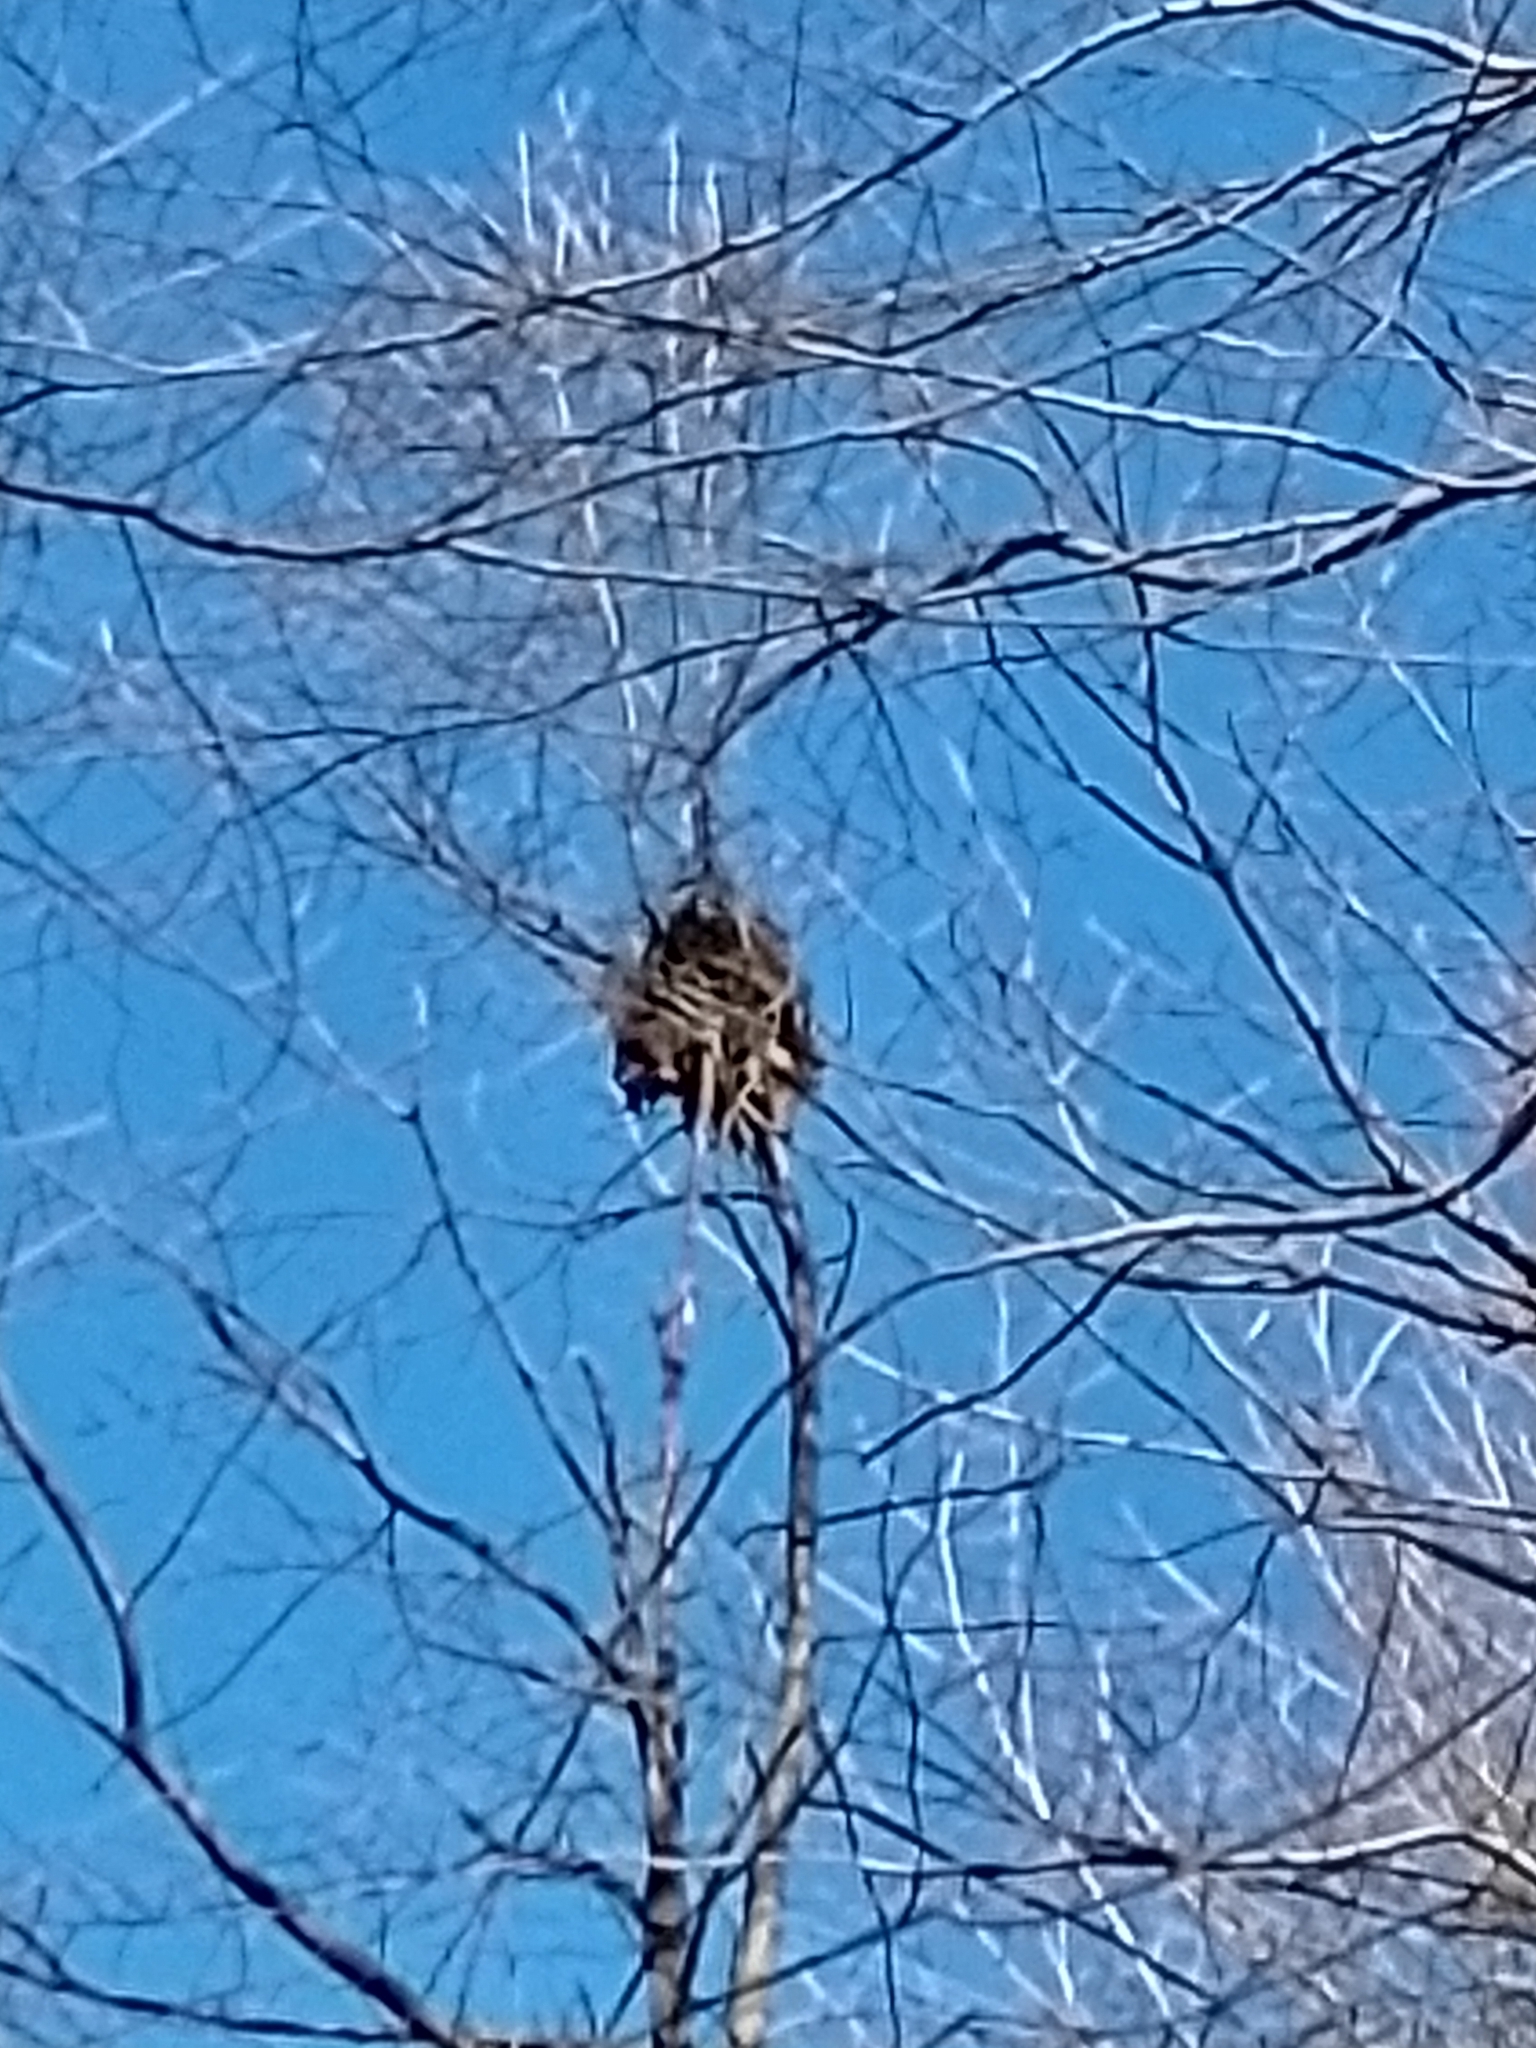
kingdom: Animalia
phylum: Chordata
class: Mammalia
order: Rodentia
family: Sciuridae
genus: Sciurus
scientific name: Sciurus niger
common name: Fox squirrel
